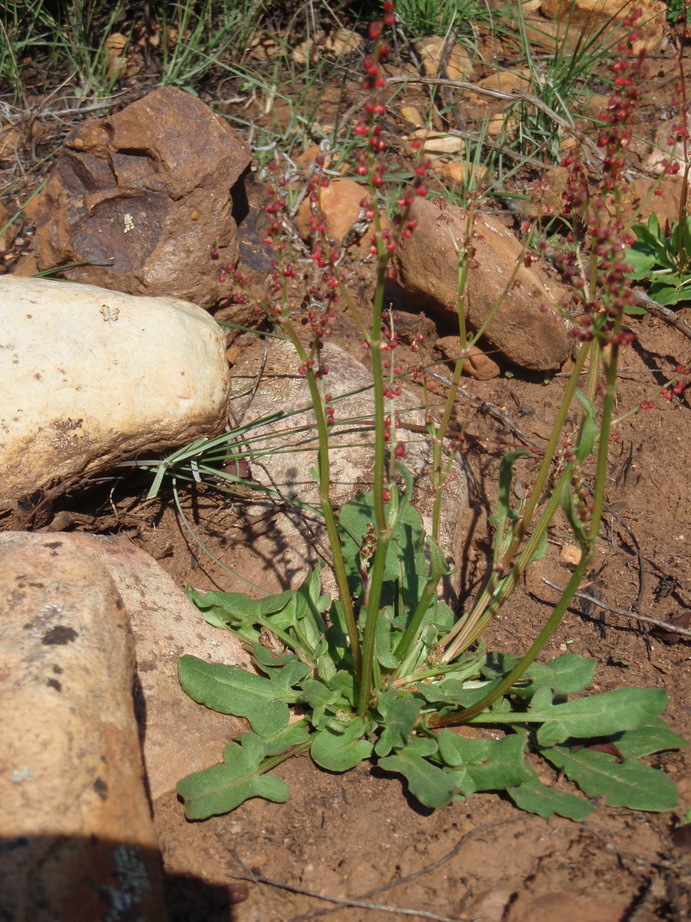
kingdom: Plantae
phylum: Tracheophyta
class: Magnoliopsida
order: Caryophyllales
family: Polygonaceae
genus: Rumex
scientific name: Rumex lativalvis
